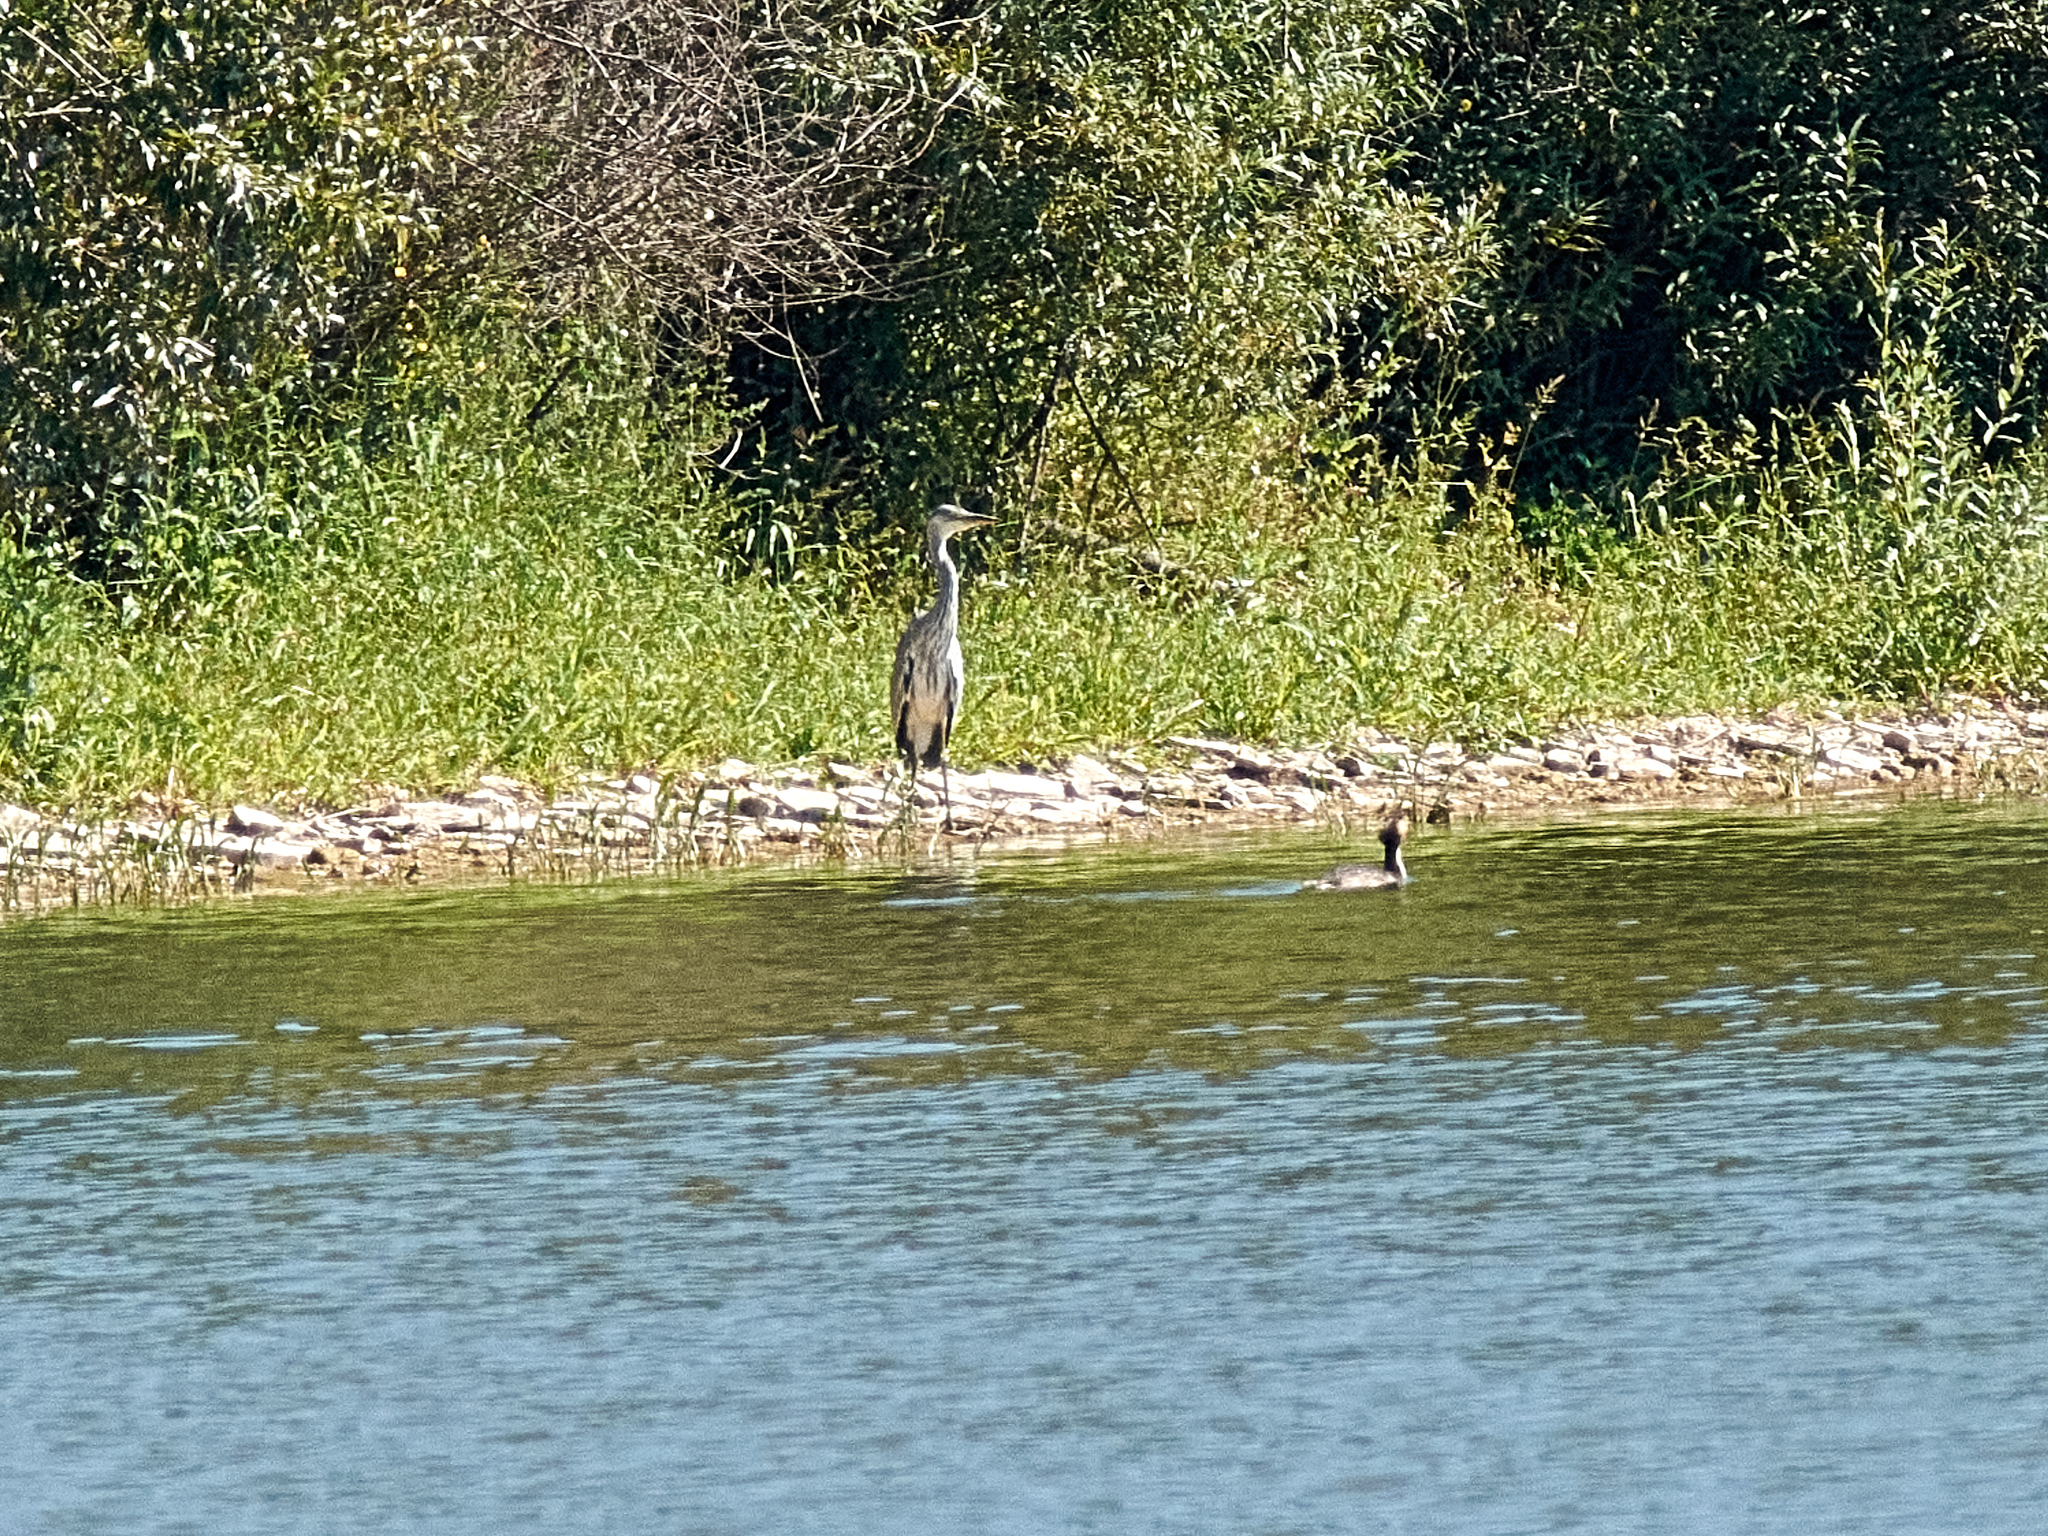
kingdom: Animalia
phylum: Chordata
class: Aves
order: Pelecaniformes
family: Ardeidae
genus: Ardea
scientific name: Ardea cinerea
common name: Grey heron
